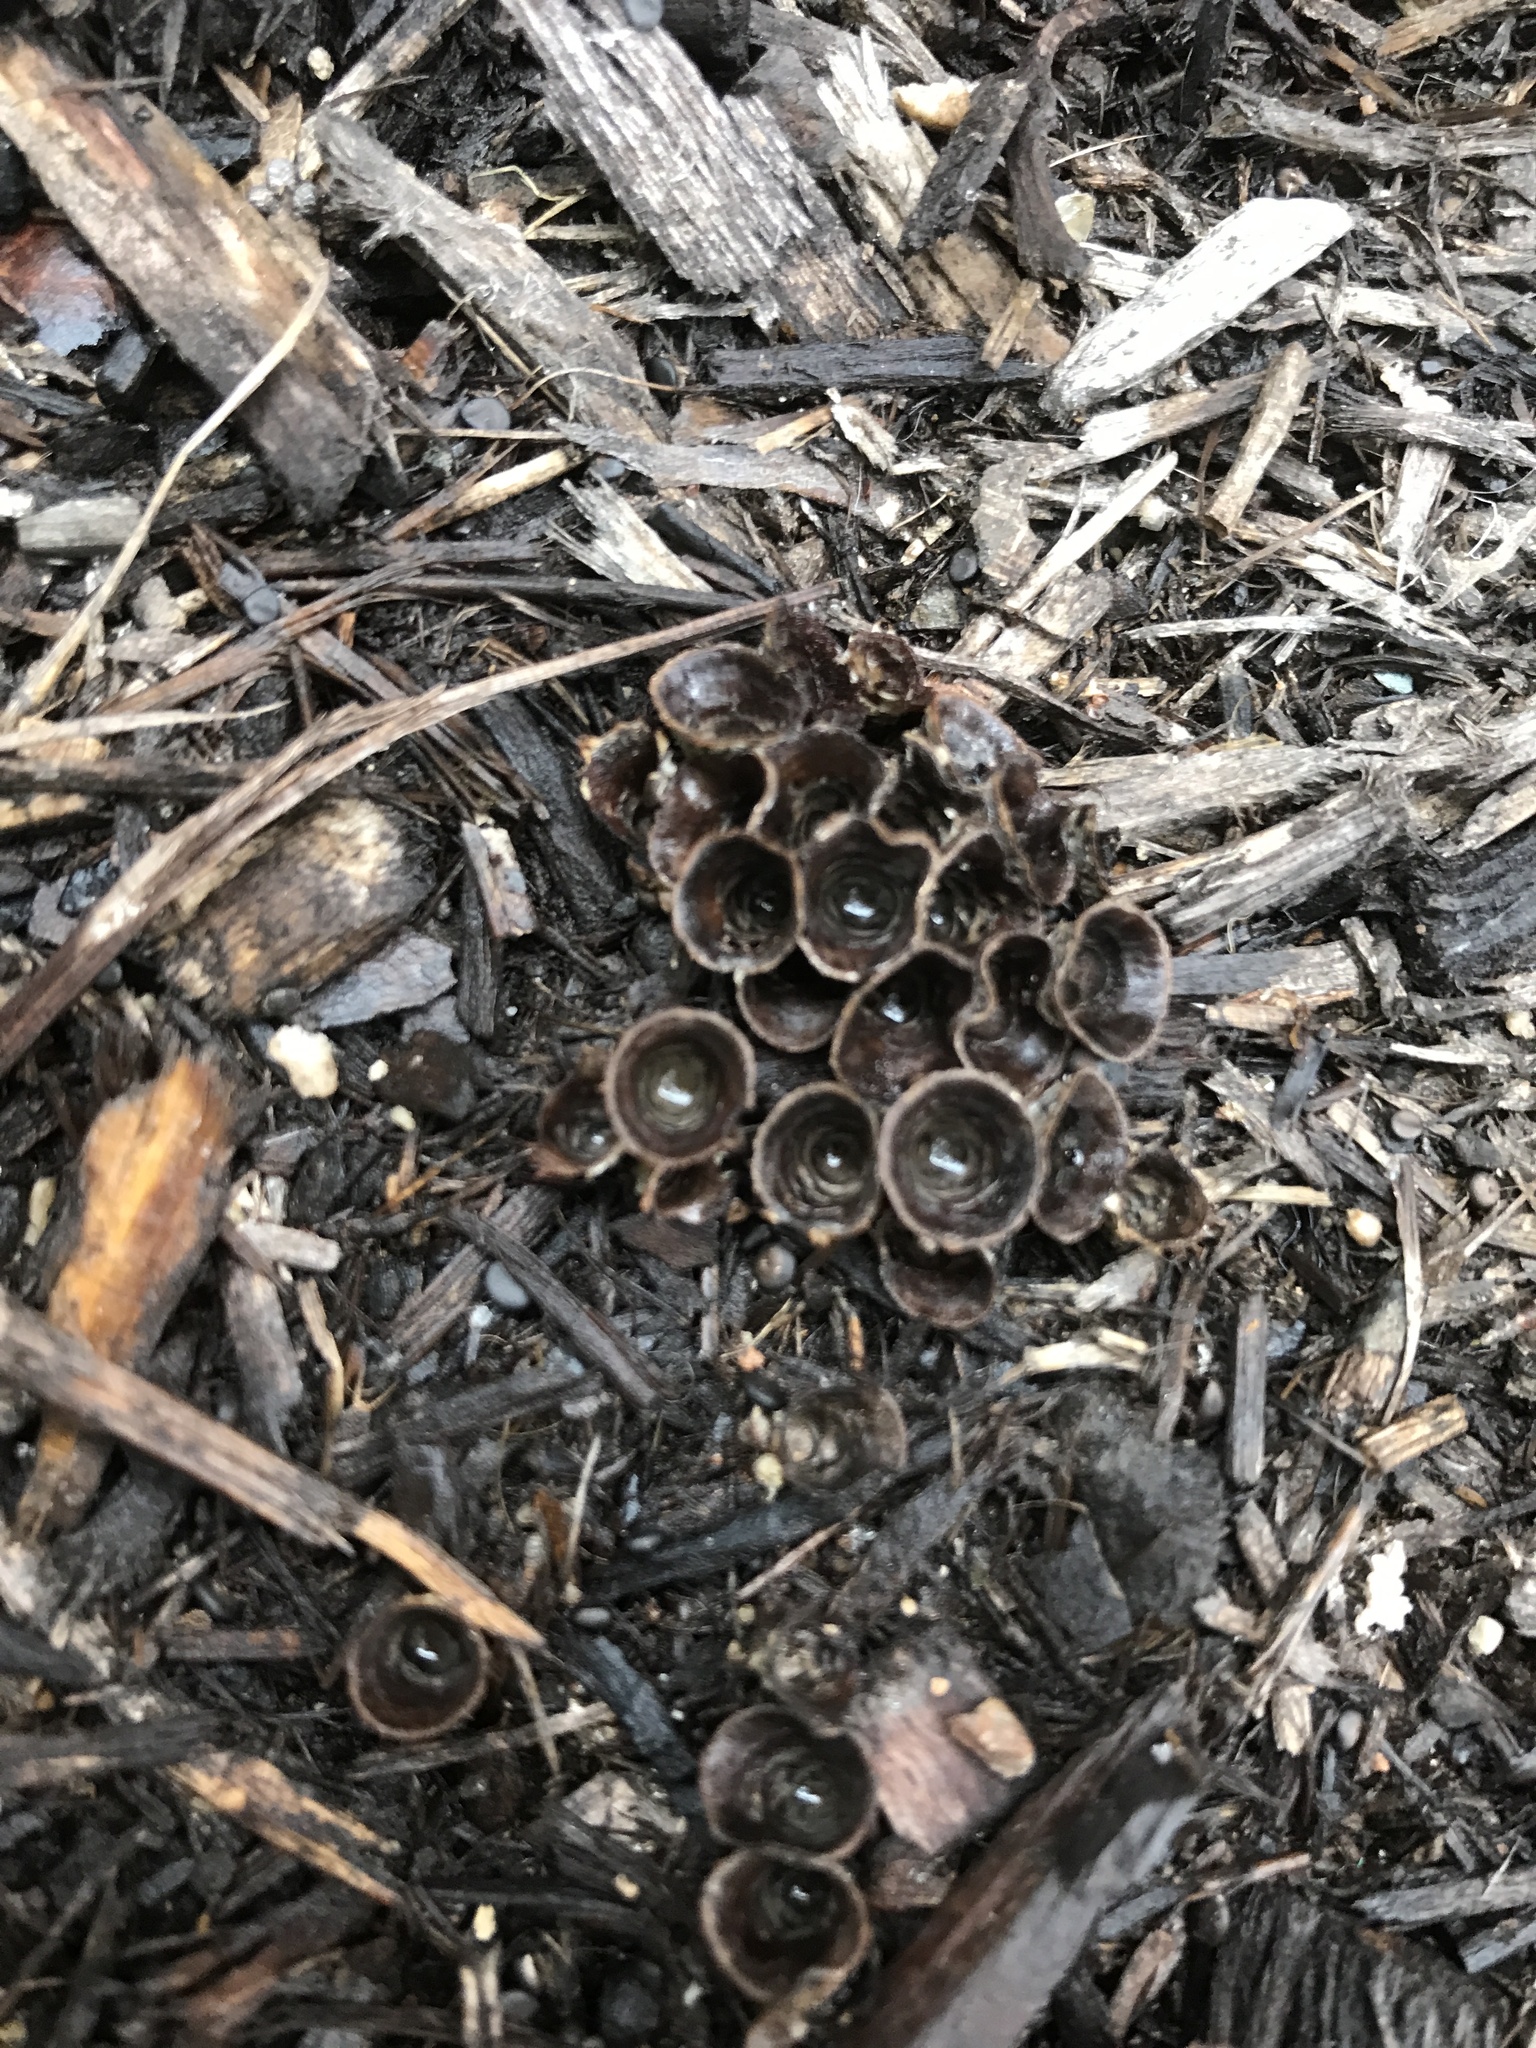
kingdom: Fungi
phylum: Basidiomycota
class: Agaricomycetes
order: Agaricales
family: Agaricaceae
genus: Cyathus
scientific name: Cyathus stercoreus
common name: Dung bird's nest
